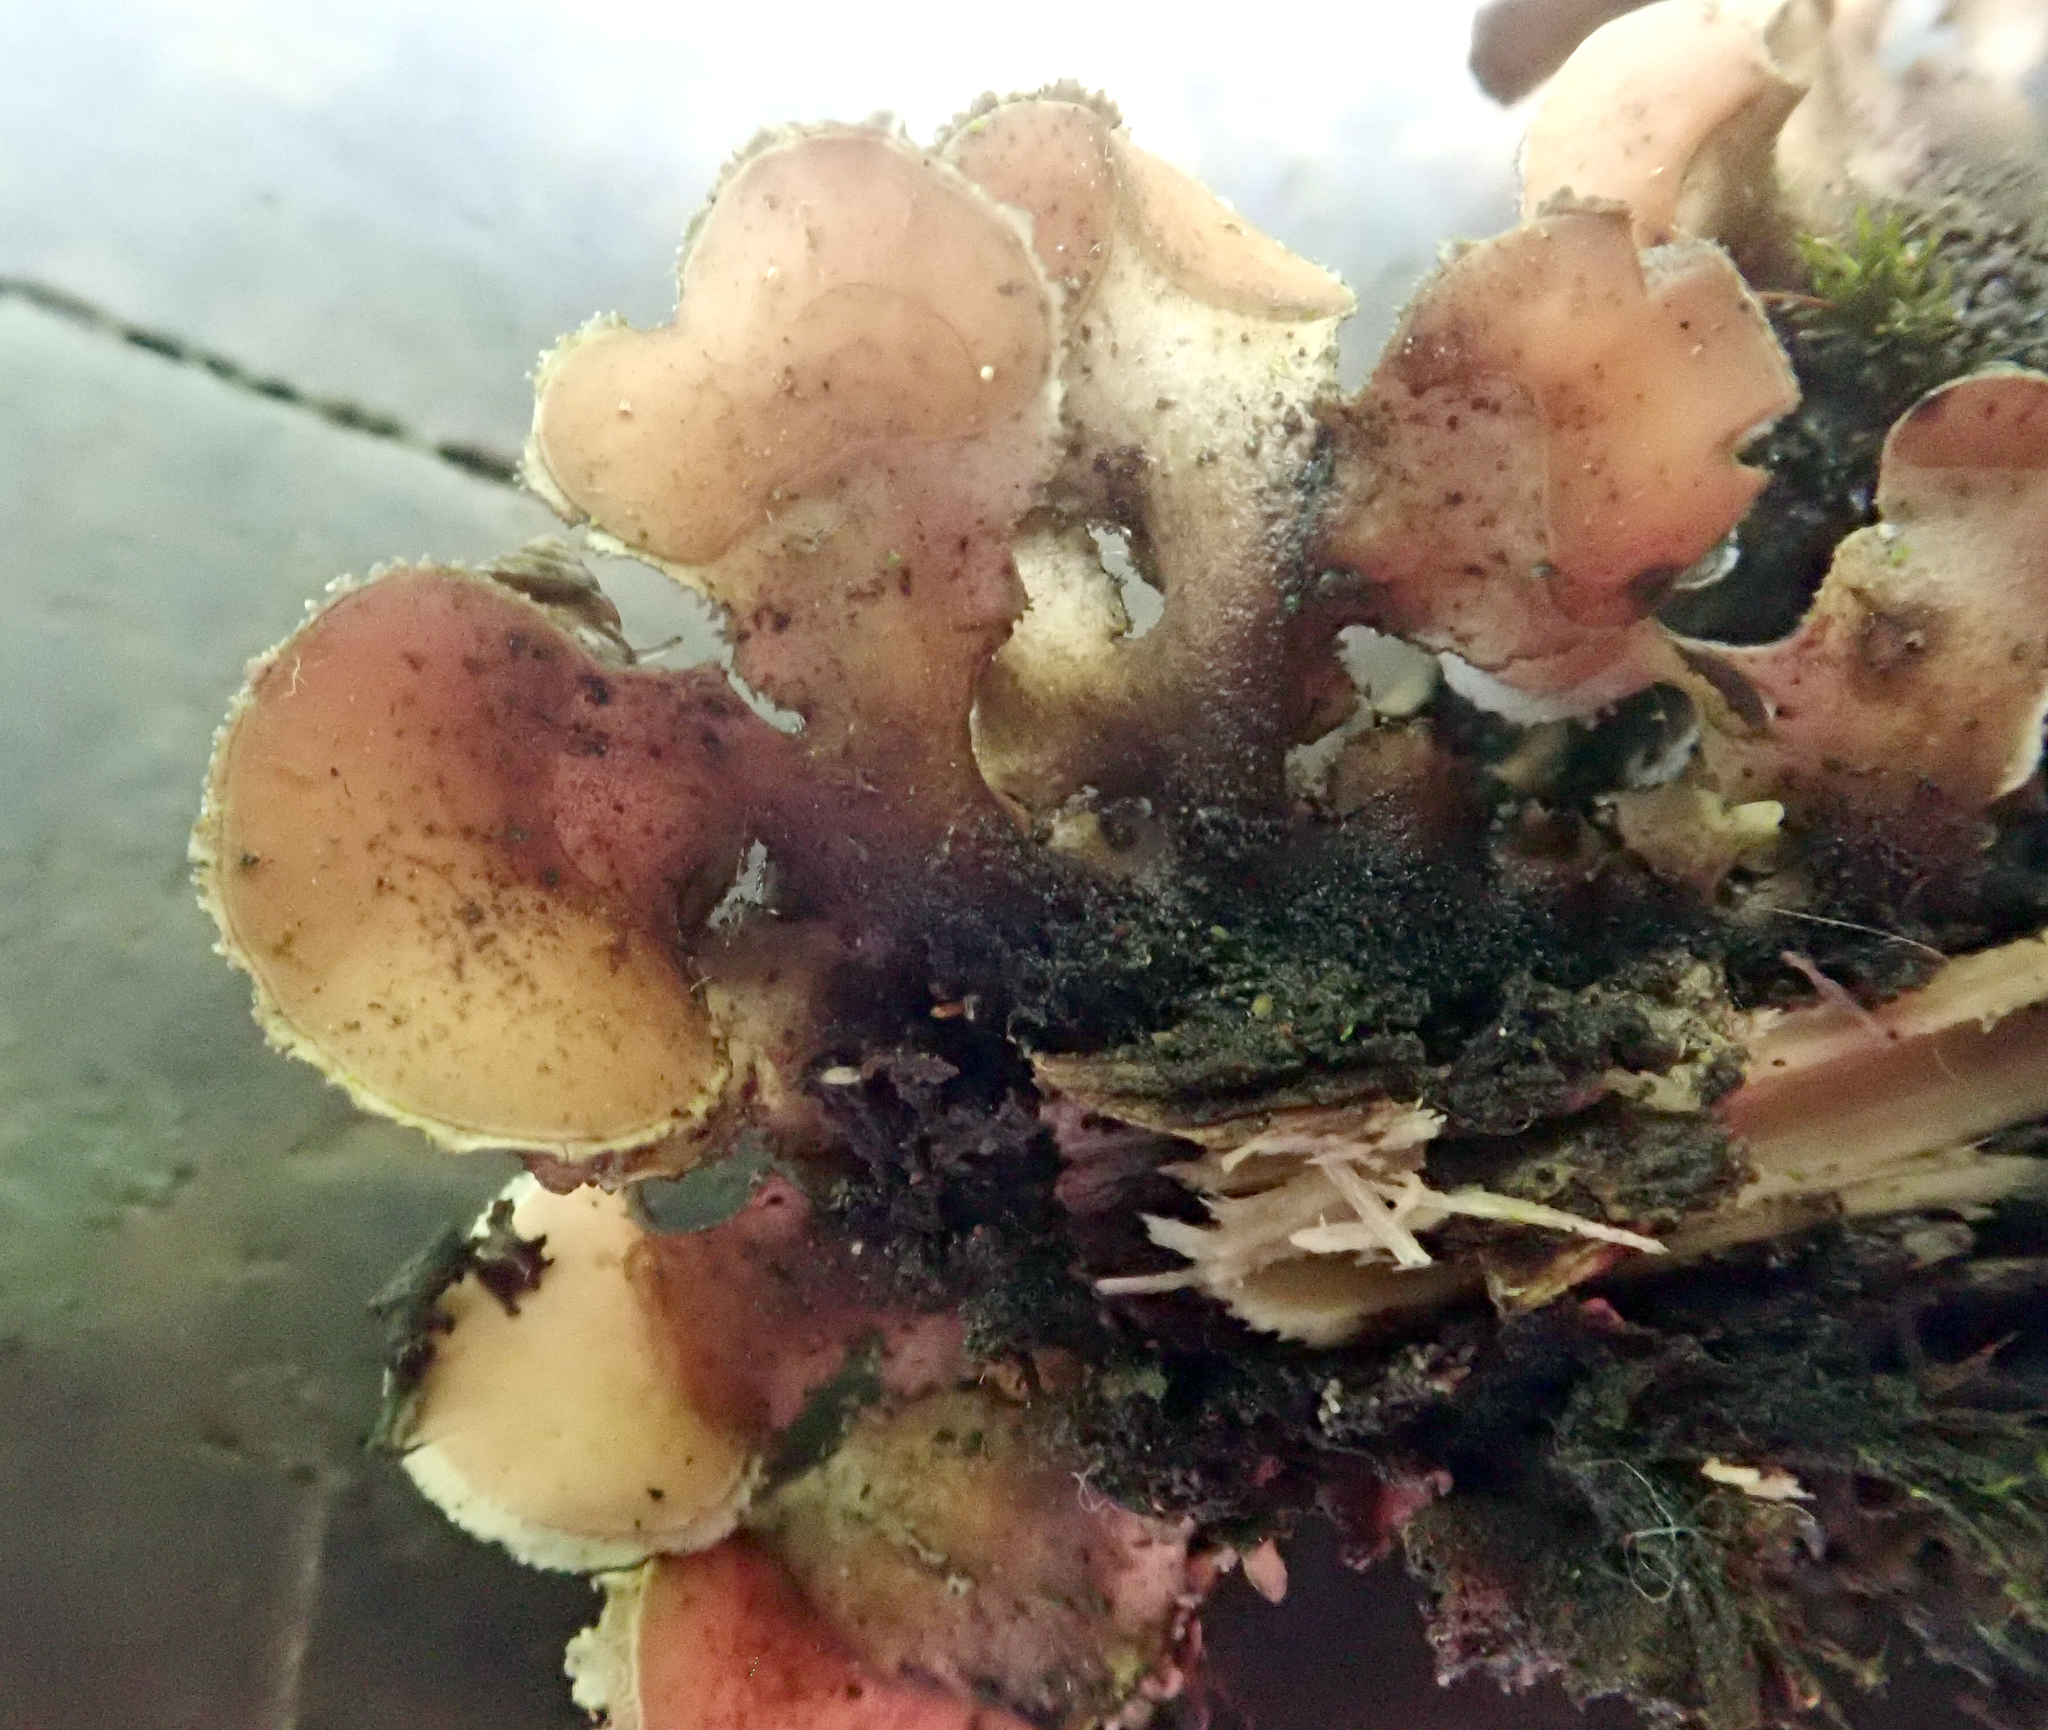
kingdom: Fungi
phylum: Ascomycota
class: Lecanoromycetes
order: Peltigerales
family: Nephromataceae
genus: Nephroma
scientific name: Nephroma helveticum
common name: Fringed kidney lichen
